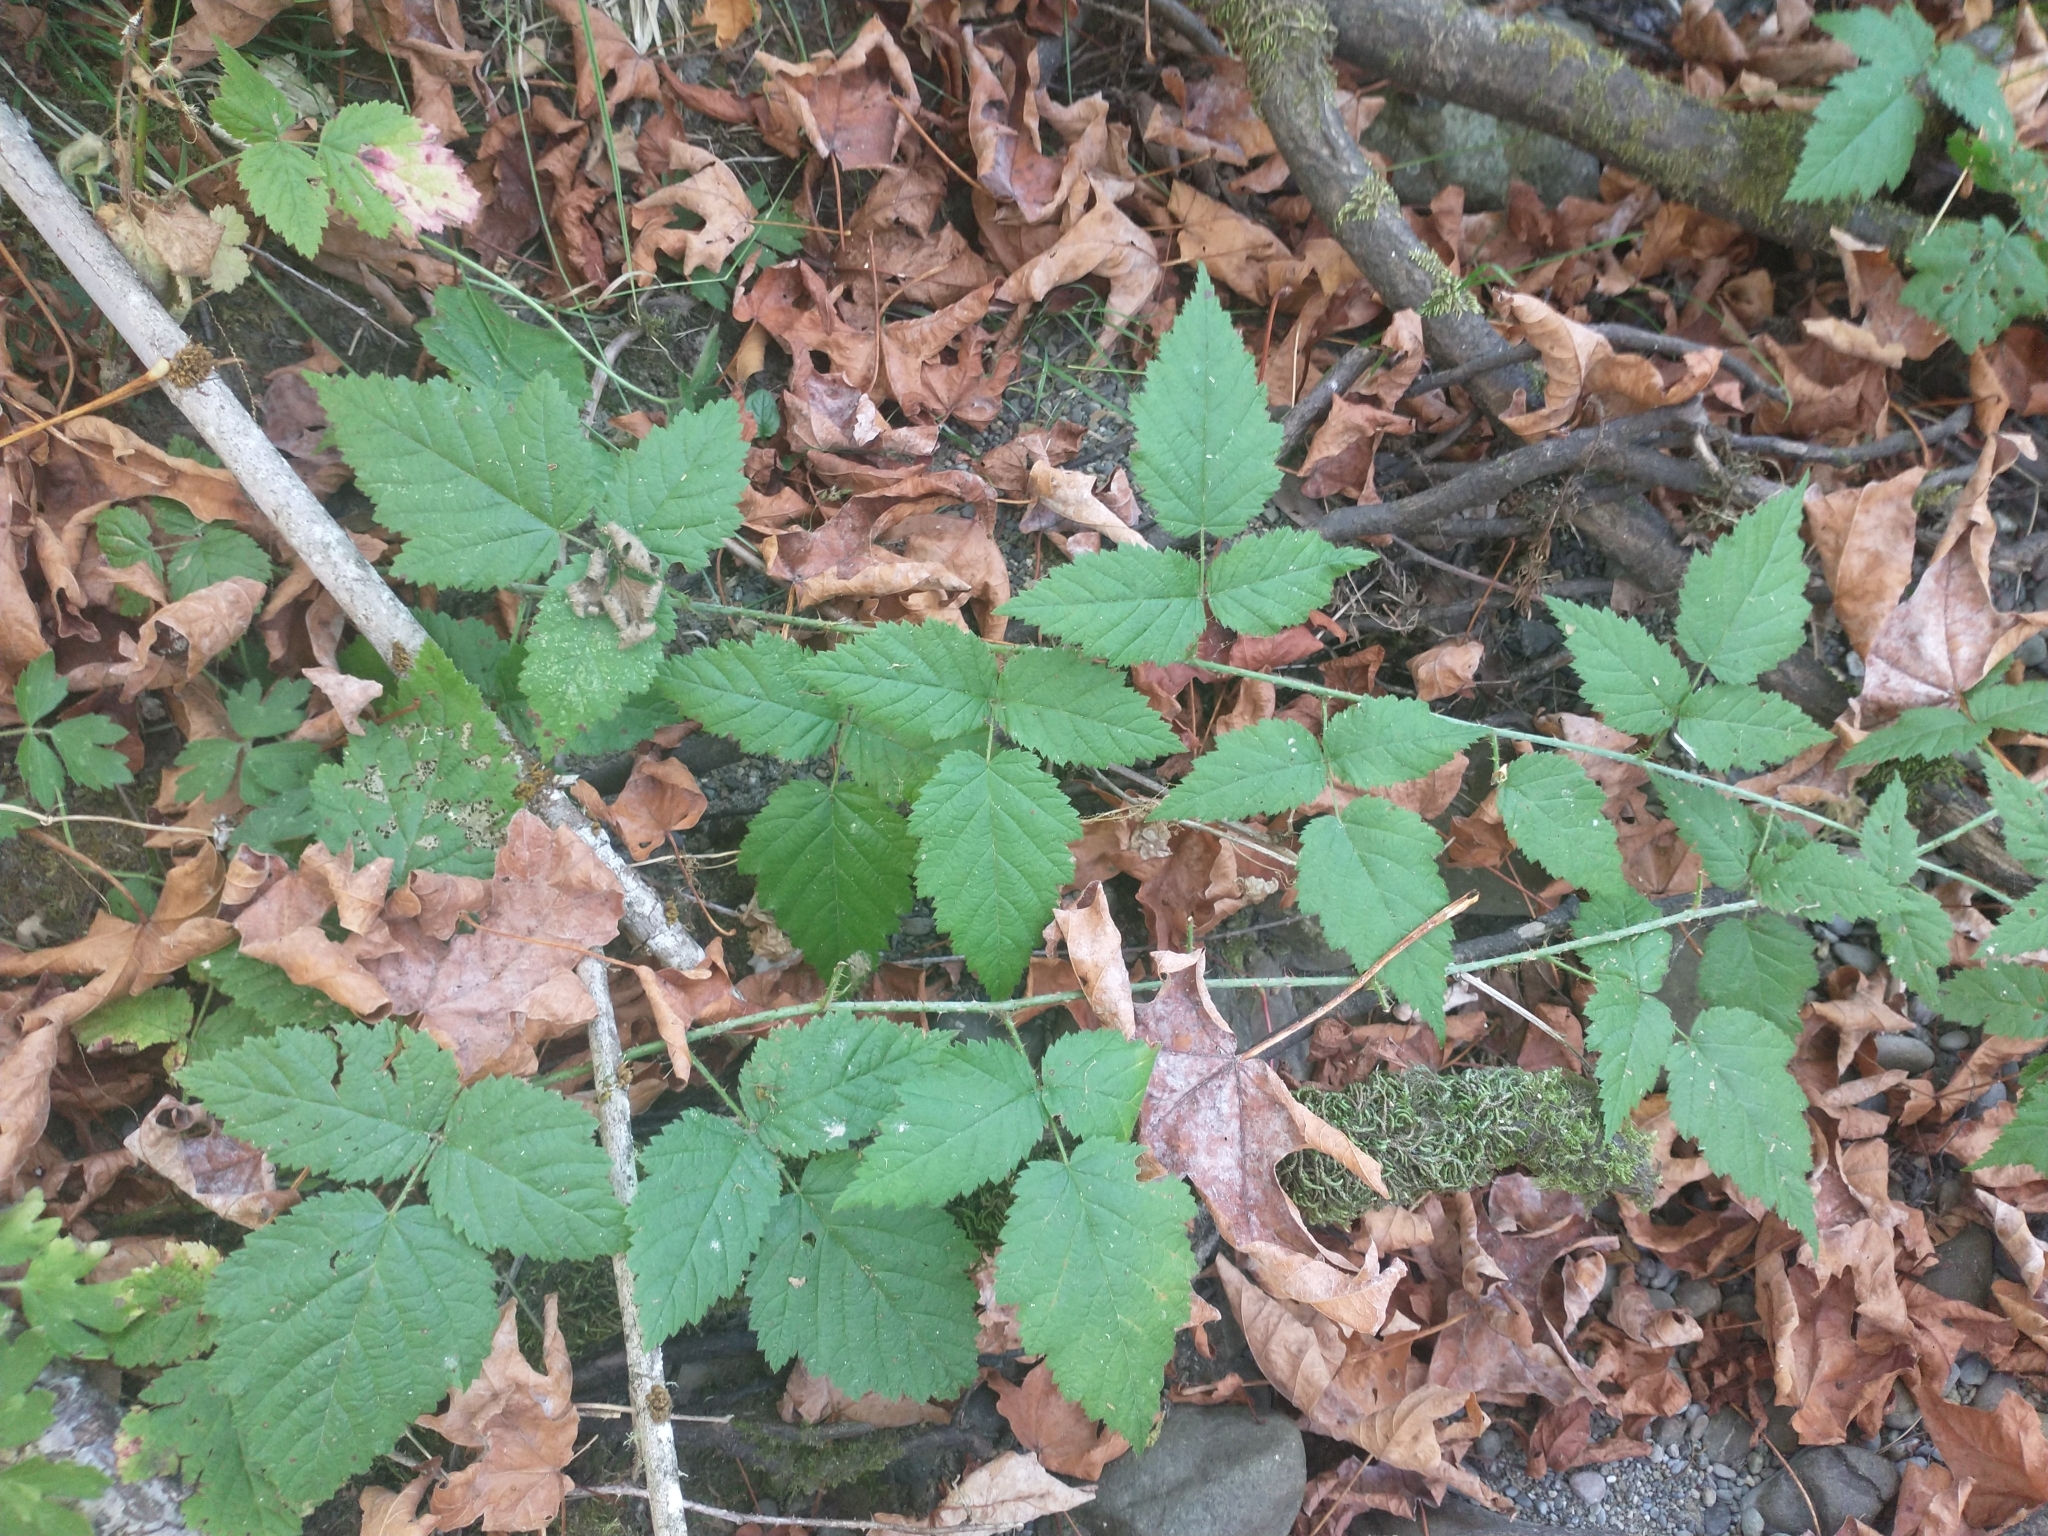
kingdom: Plantae
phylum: Tracheophyta
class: Magnoliopsida
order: Rosales
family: Rosaceae
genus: Rubus
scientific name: Rubus ursinus
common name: Pacific blackberry
